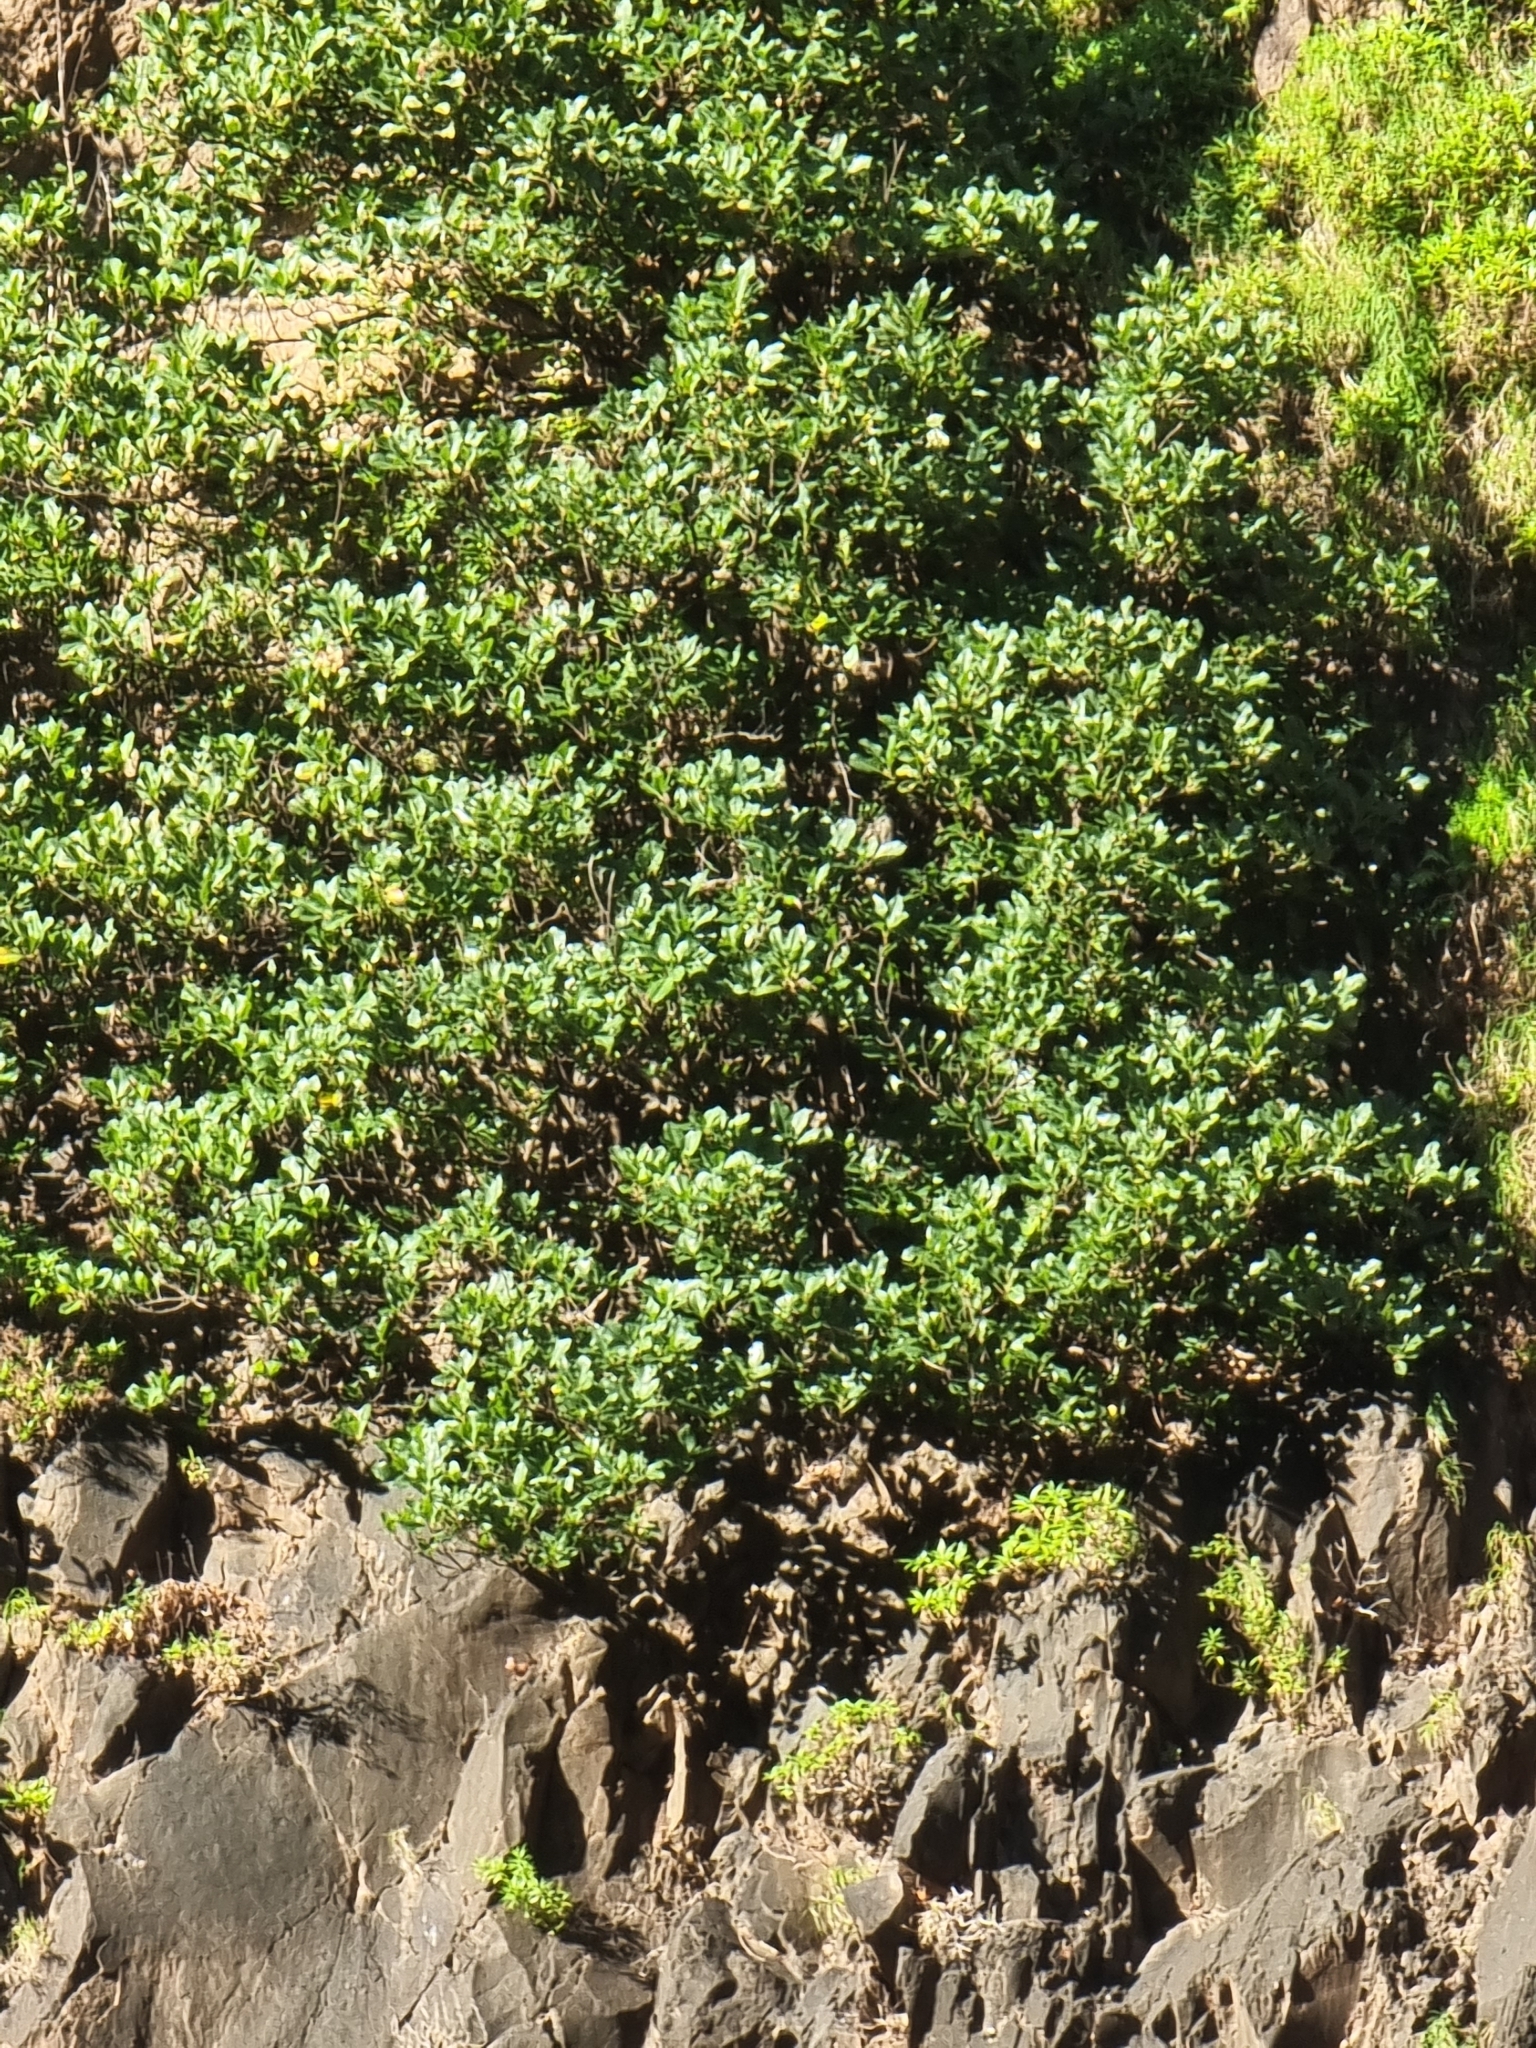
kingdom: Plantae
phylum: Tracheophyta
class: Magnoliopsida
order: Ericales
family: Sapotaceae
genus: Sideroxylon
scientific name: Sideroxylon mirmulans
